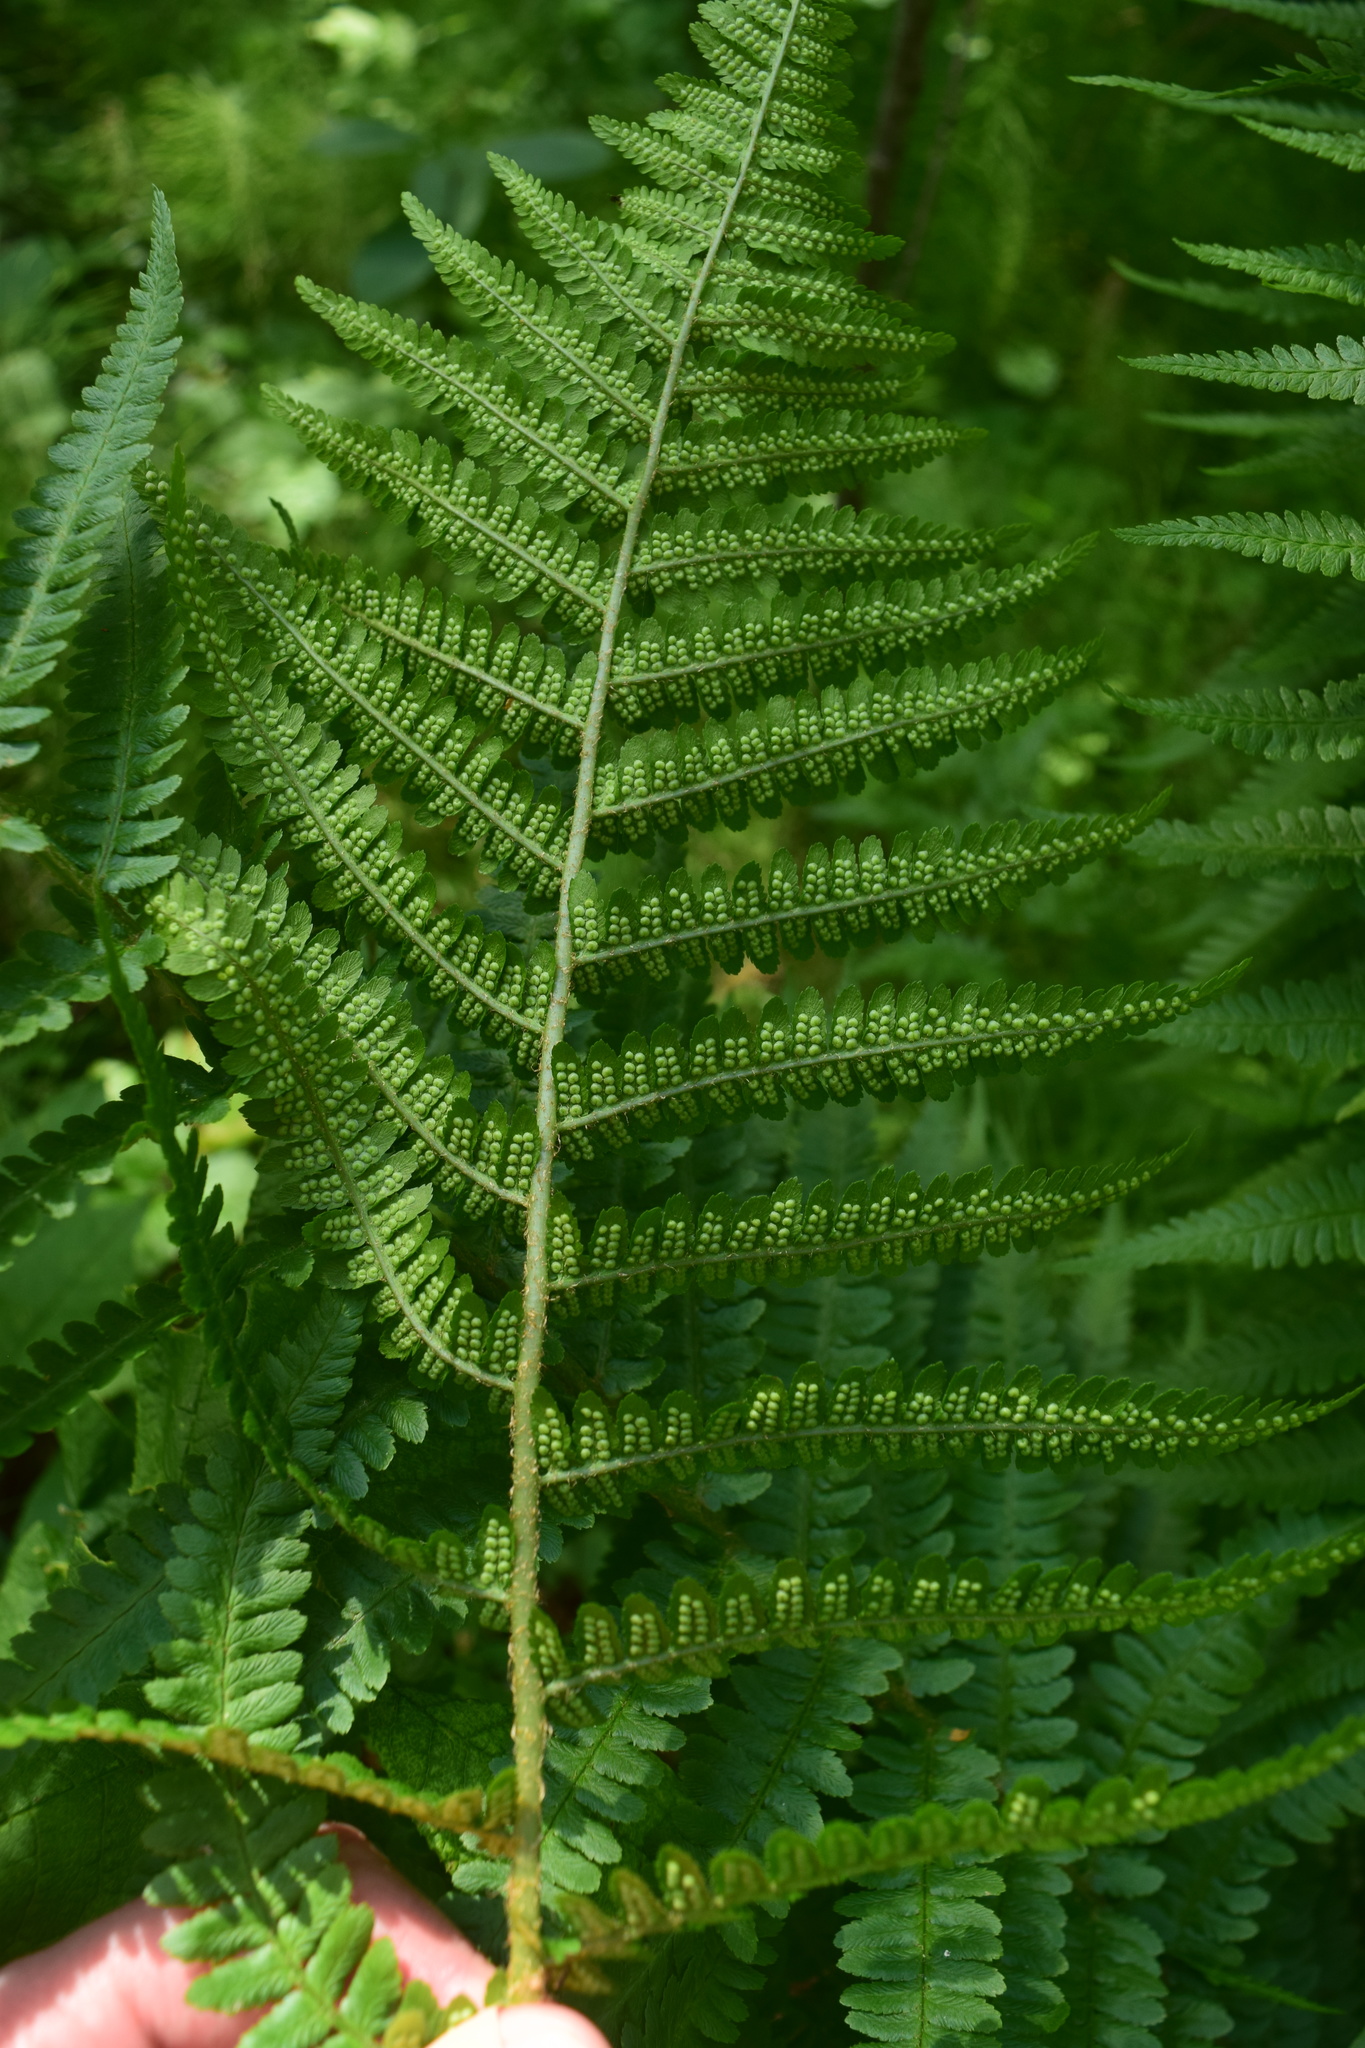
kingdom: Plantae
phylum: Tracheophyta
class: Polypodiopsida
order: Polypodiales
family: Dryopteridaceae
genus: Dryopteris
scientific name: Dryopteris filix-mas
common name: Male fern
